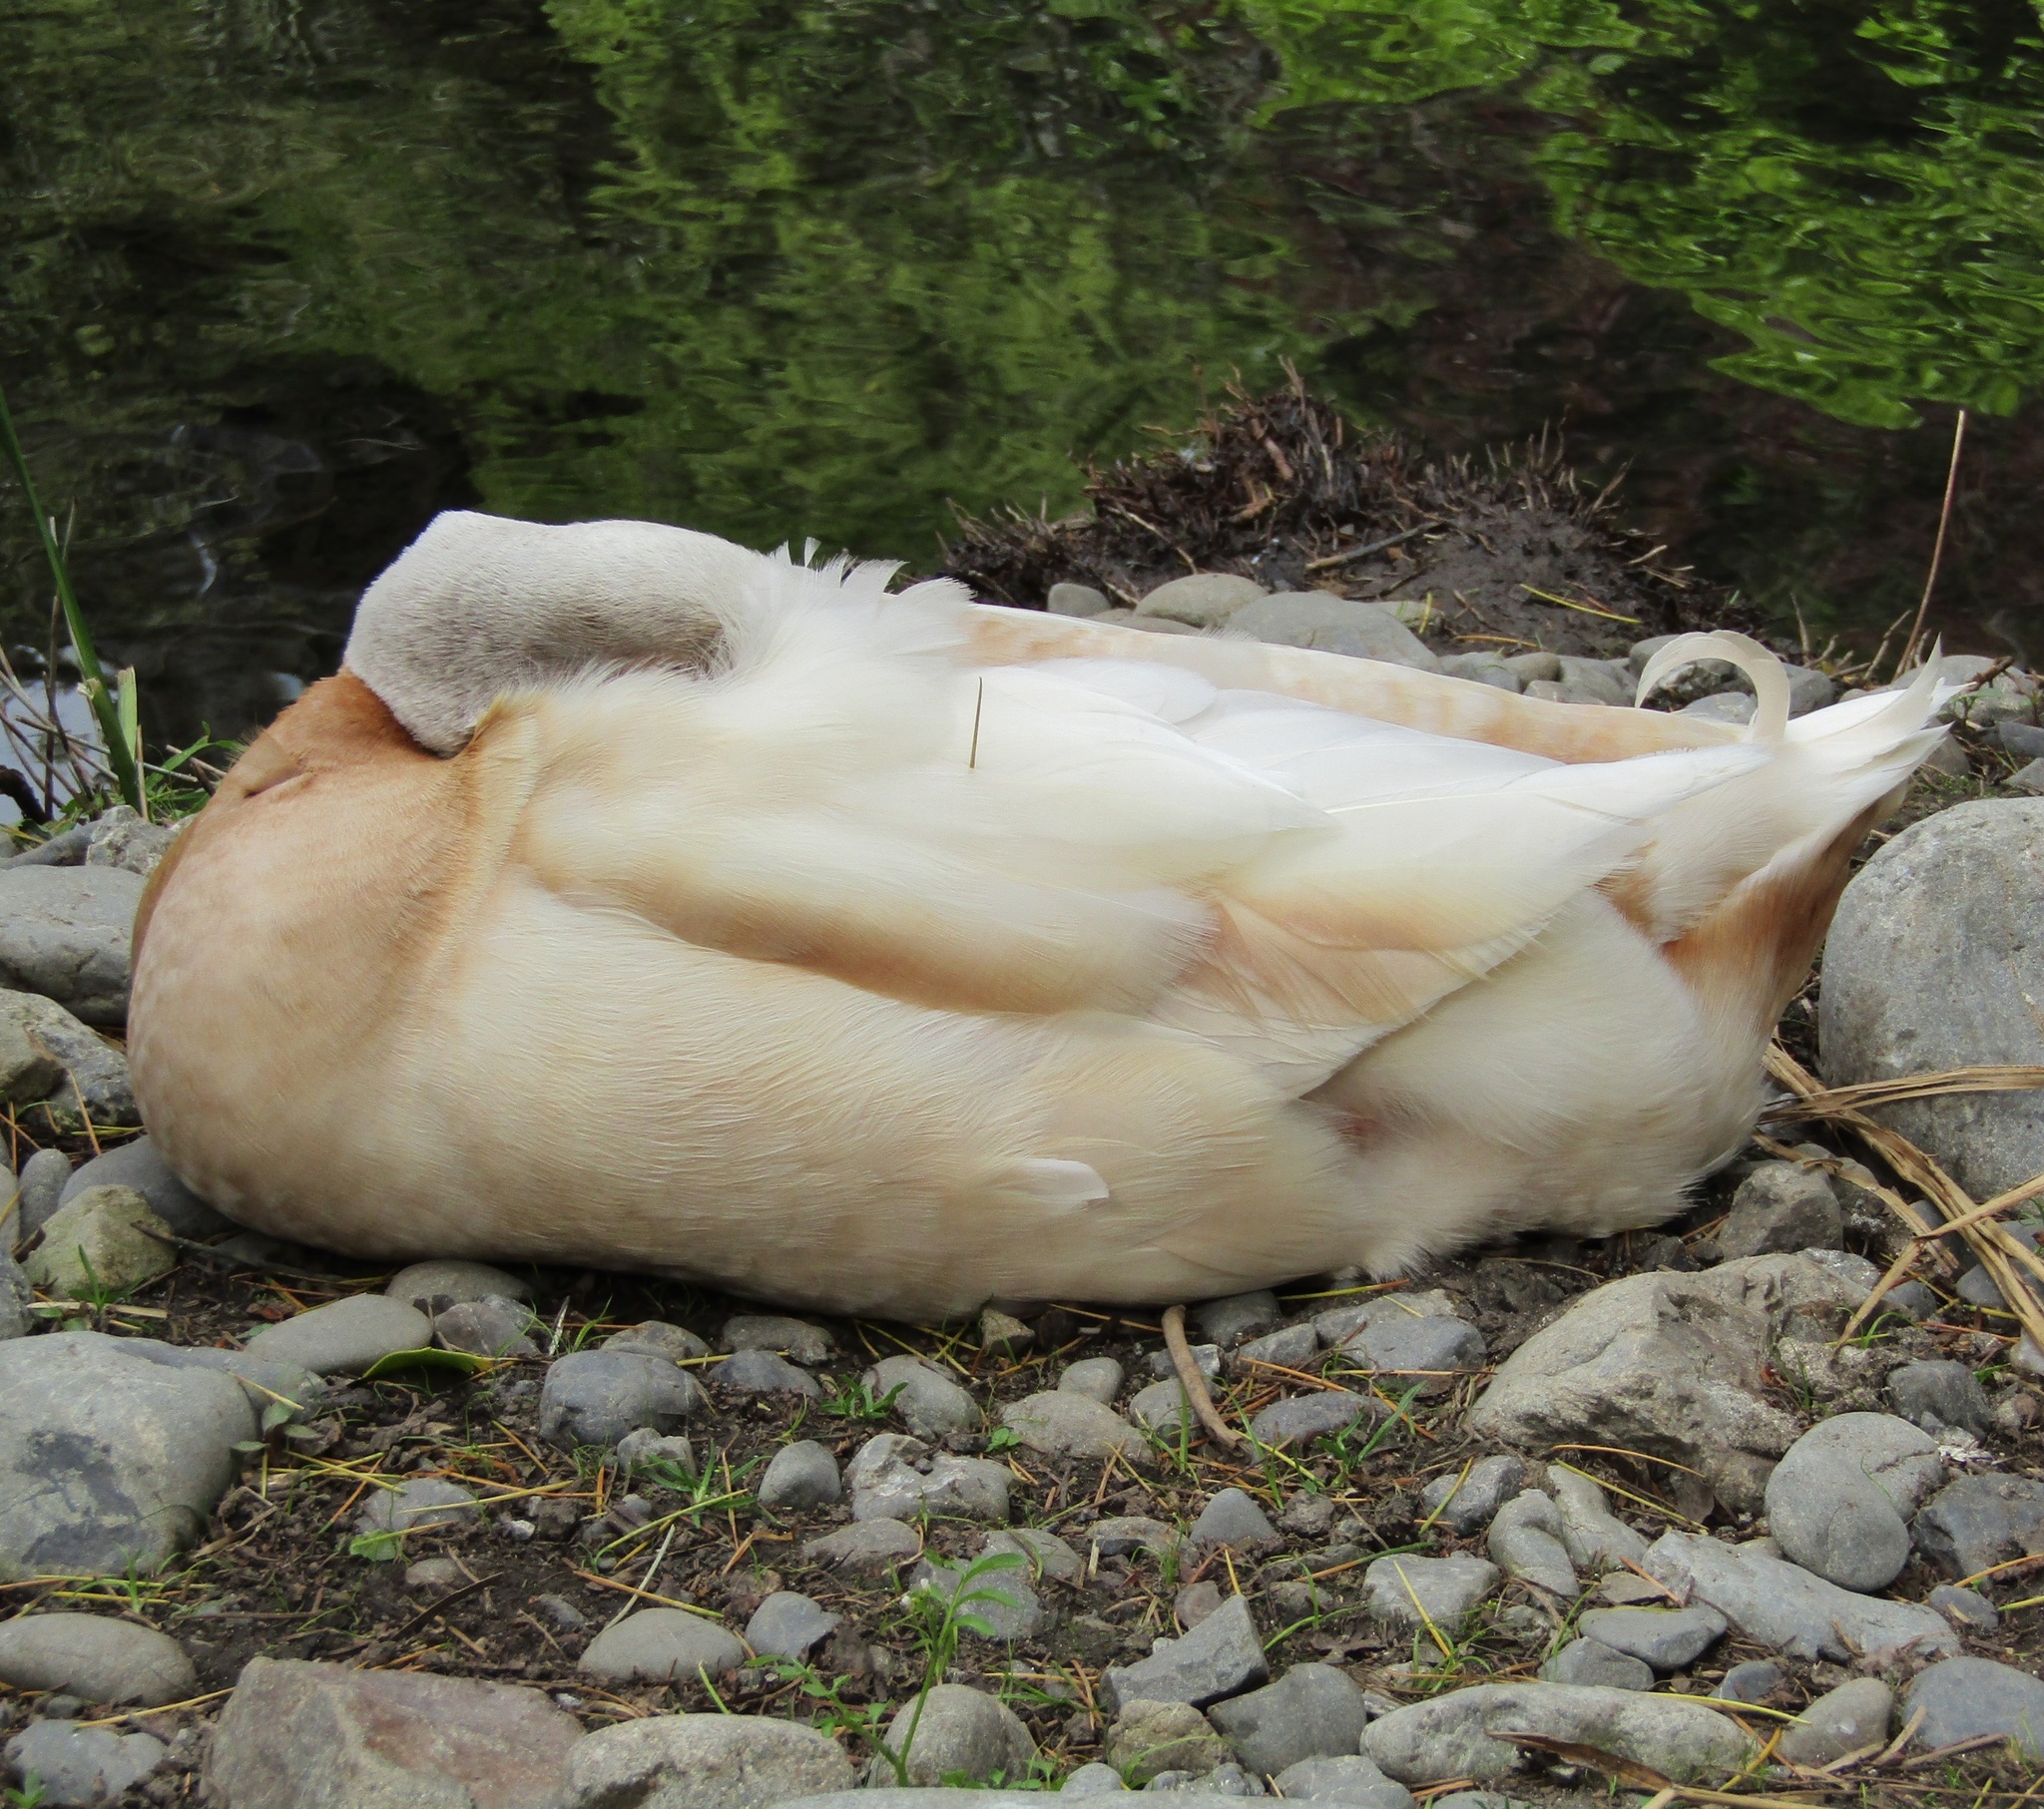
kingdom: Animalia
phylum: Chordata
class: Aves
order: Anseriformes
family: Anatidae
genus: Anas
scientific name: Anas platyrhynchos
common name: Mallard
